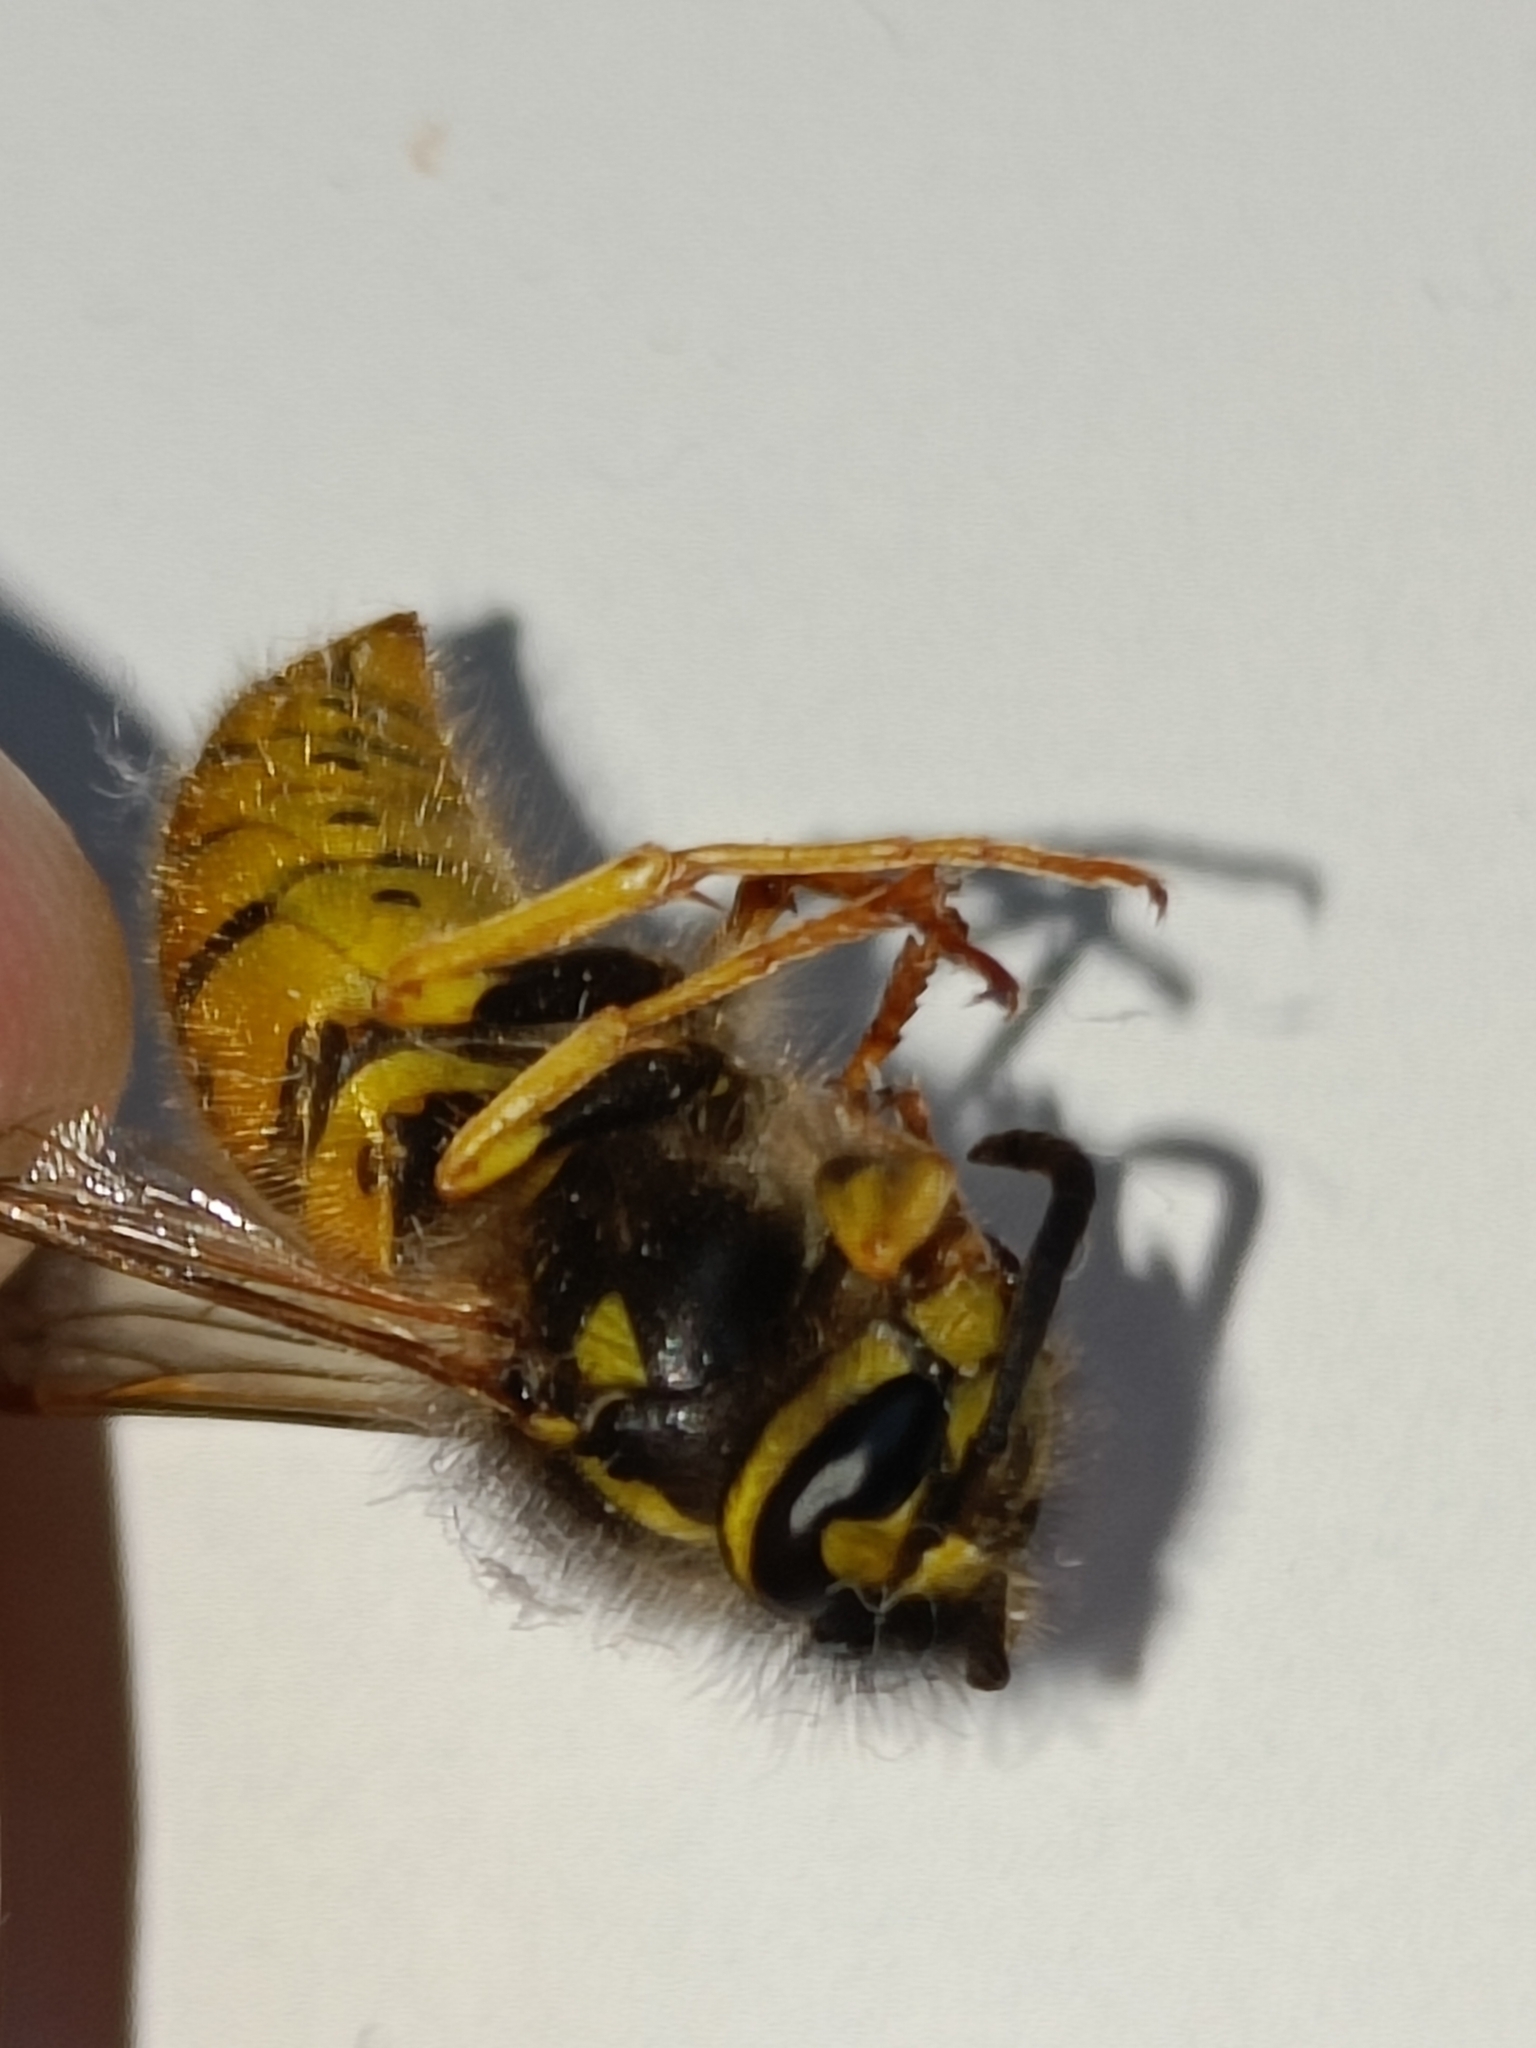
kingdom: Animalia
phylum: Arthropoda
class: Insecta
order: Hymenoptera
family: Vespidae
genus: Vespula
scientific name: Vespula germanica
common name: German wasp
